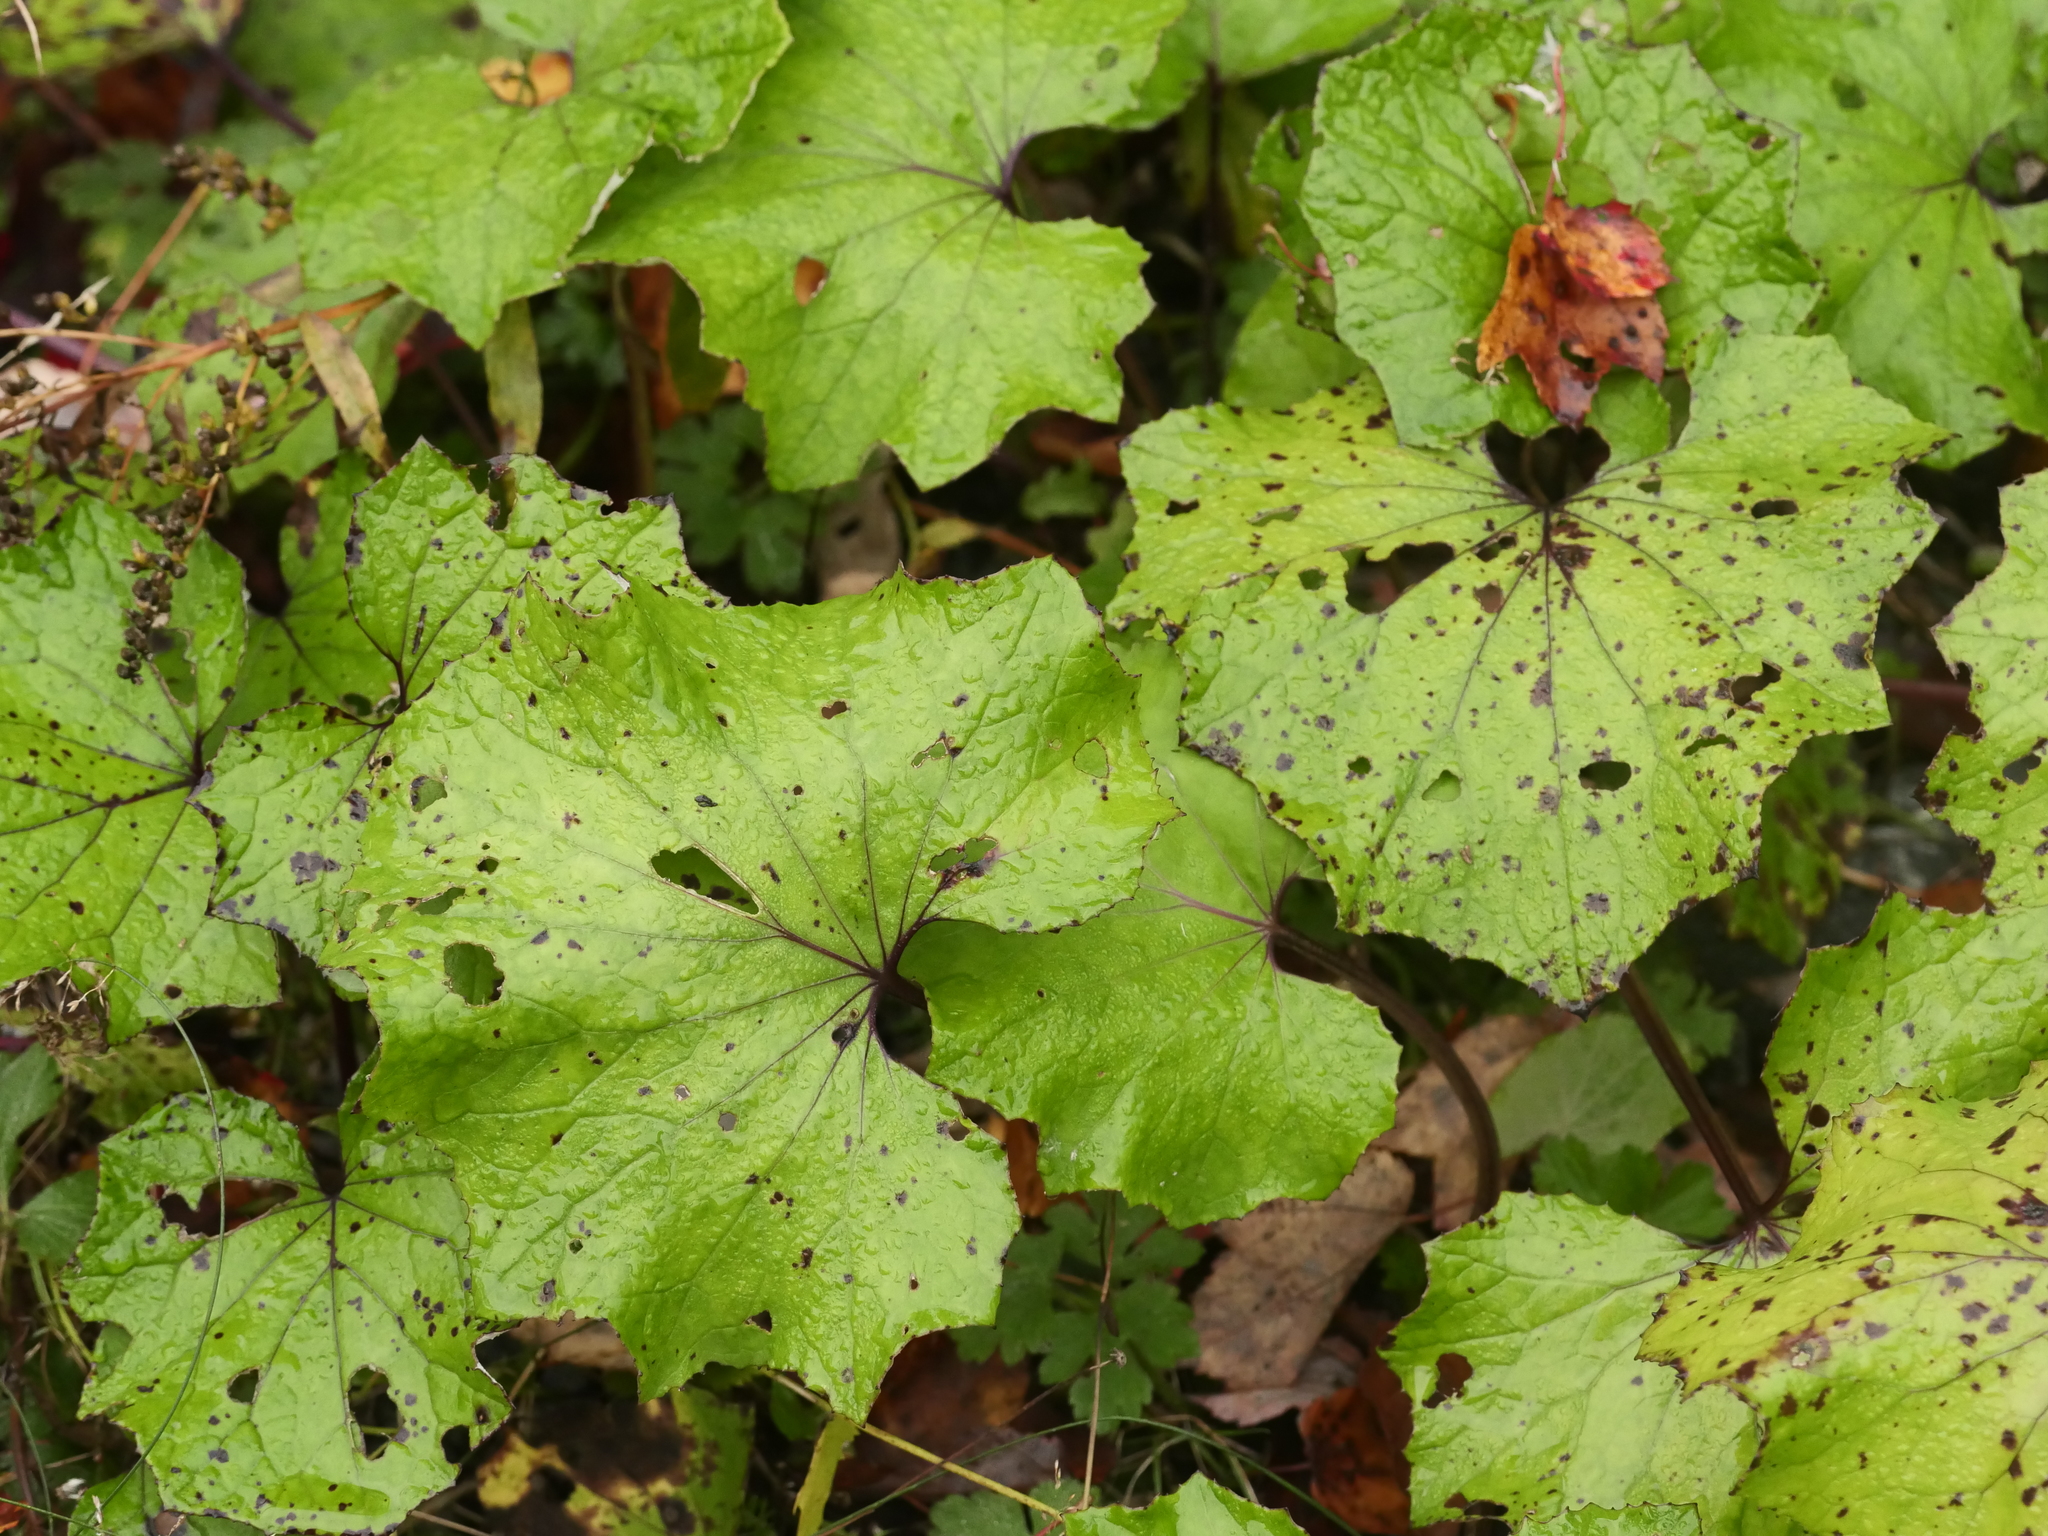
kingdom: Plantae
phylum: Tracheophyta
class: Magnoliopsida
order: Asterales
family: Asteraceae
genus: Tussilago
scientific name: Tussilago farfara
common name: Coltsfoot
